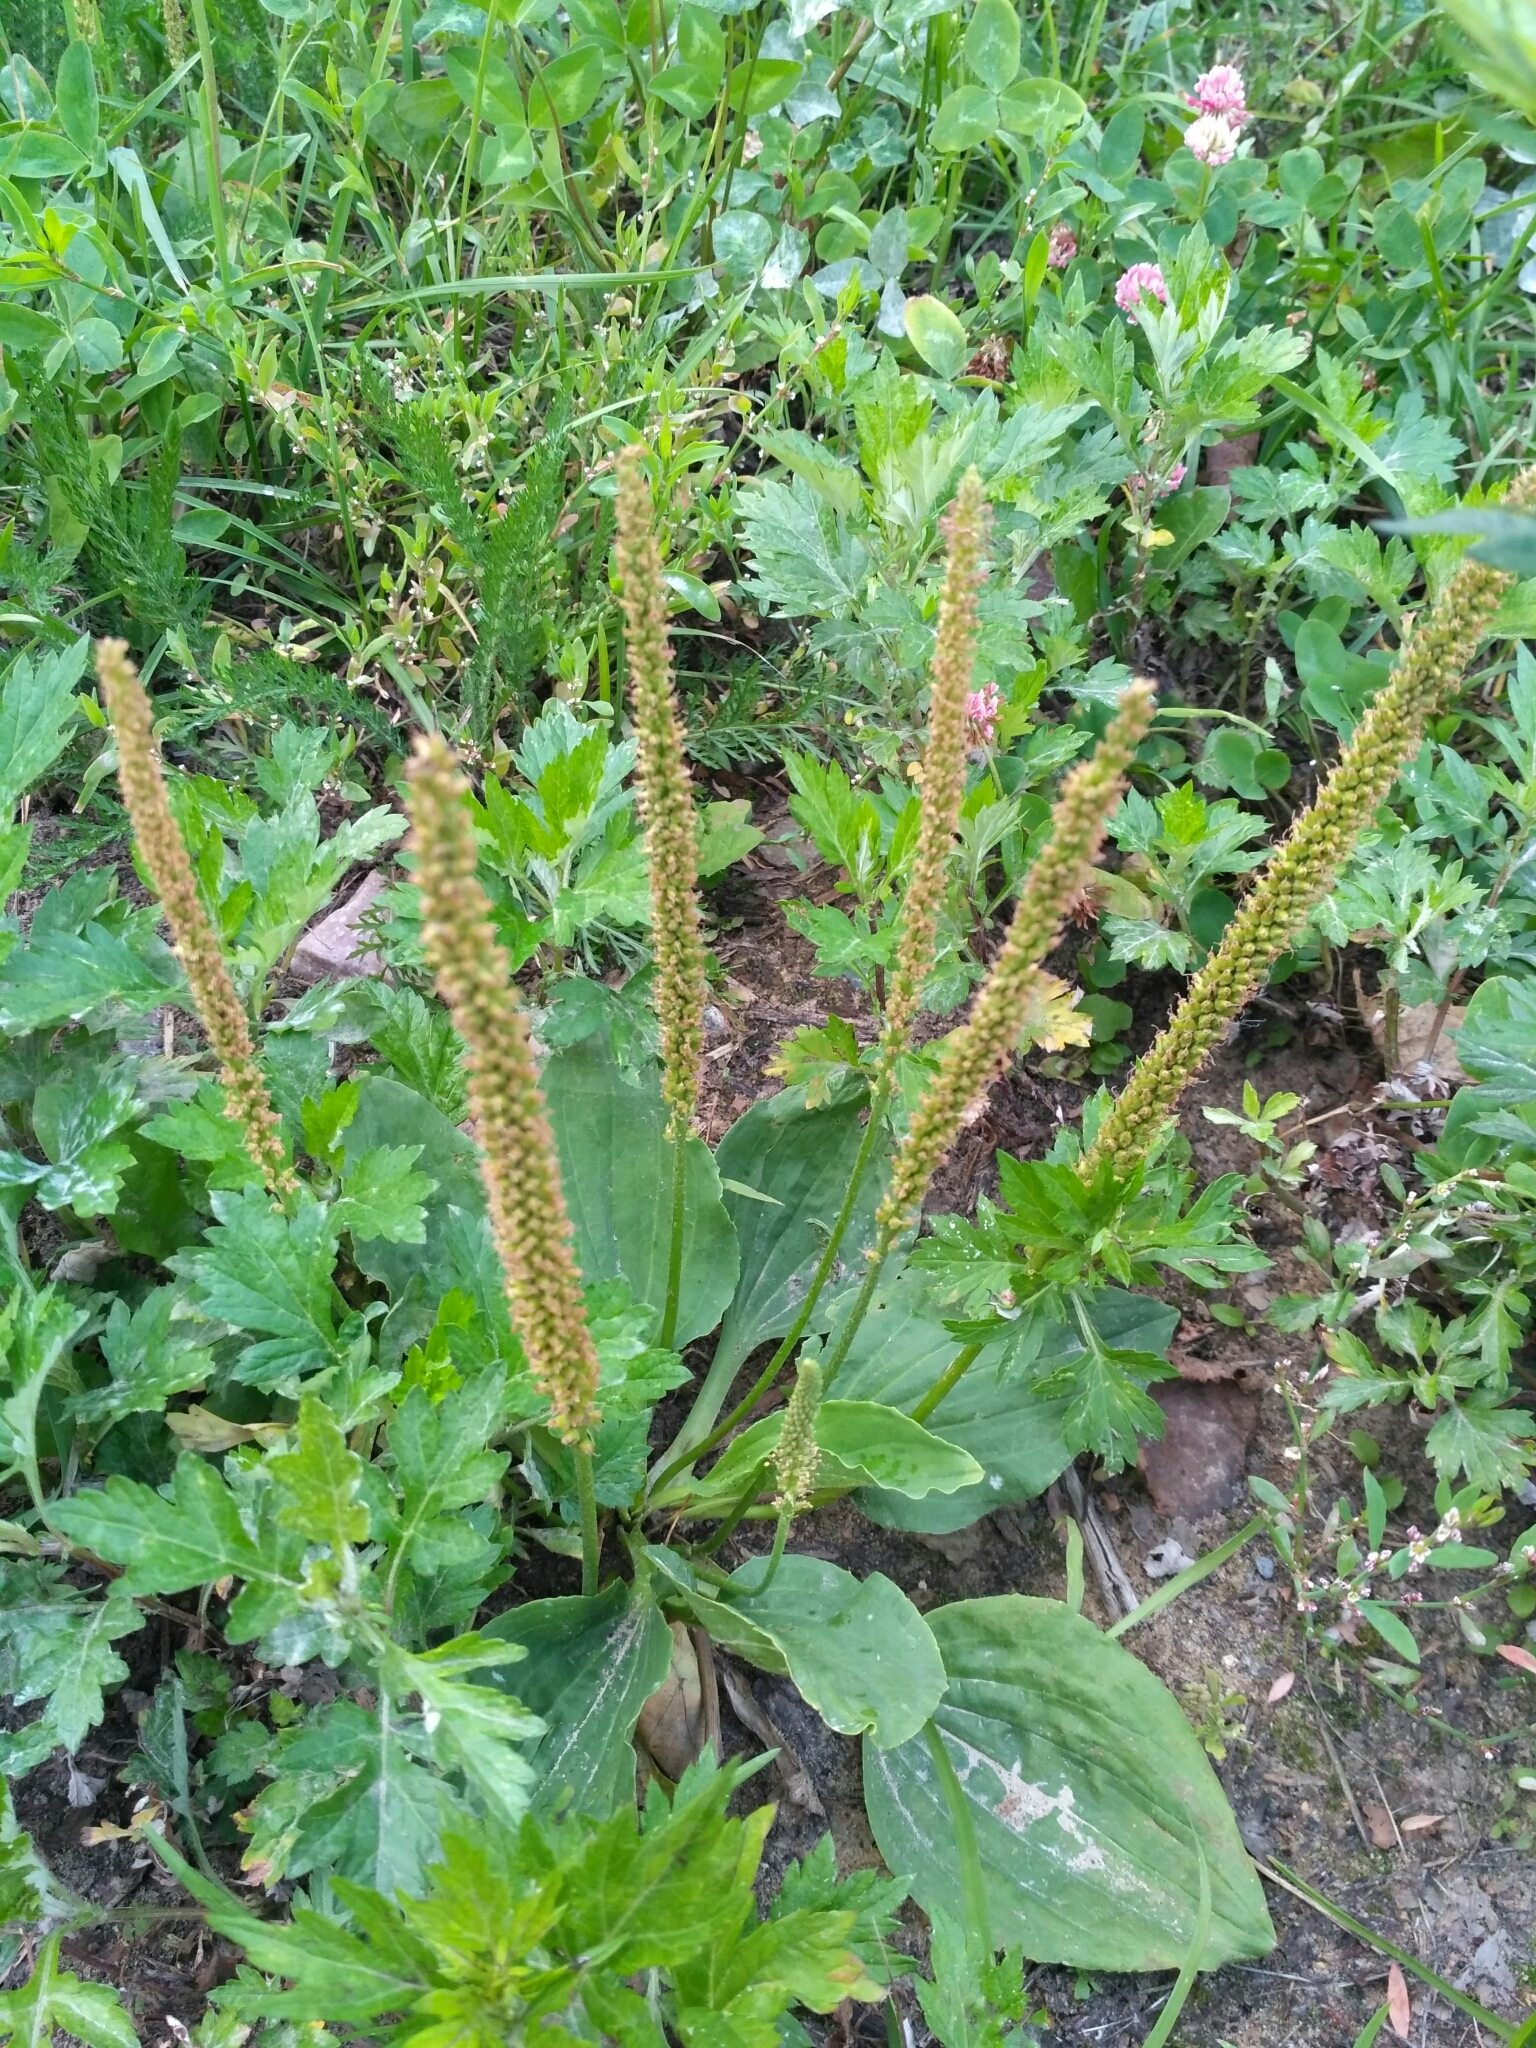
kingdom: Plantae
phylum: Tracheophyta
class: Magnoliopsida
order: Lamiales
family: Plantaginaceae
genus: Plantago
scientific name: Plantago major
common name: Common plantain
